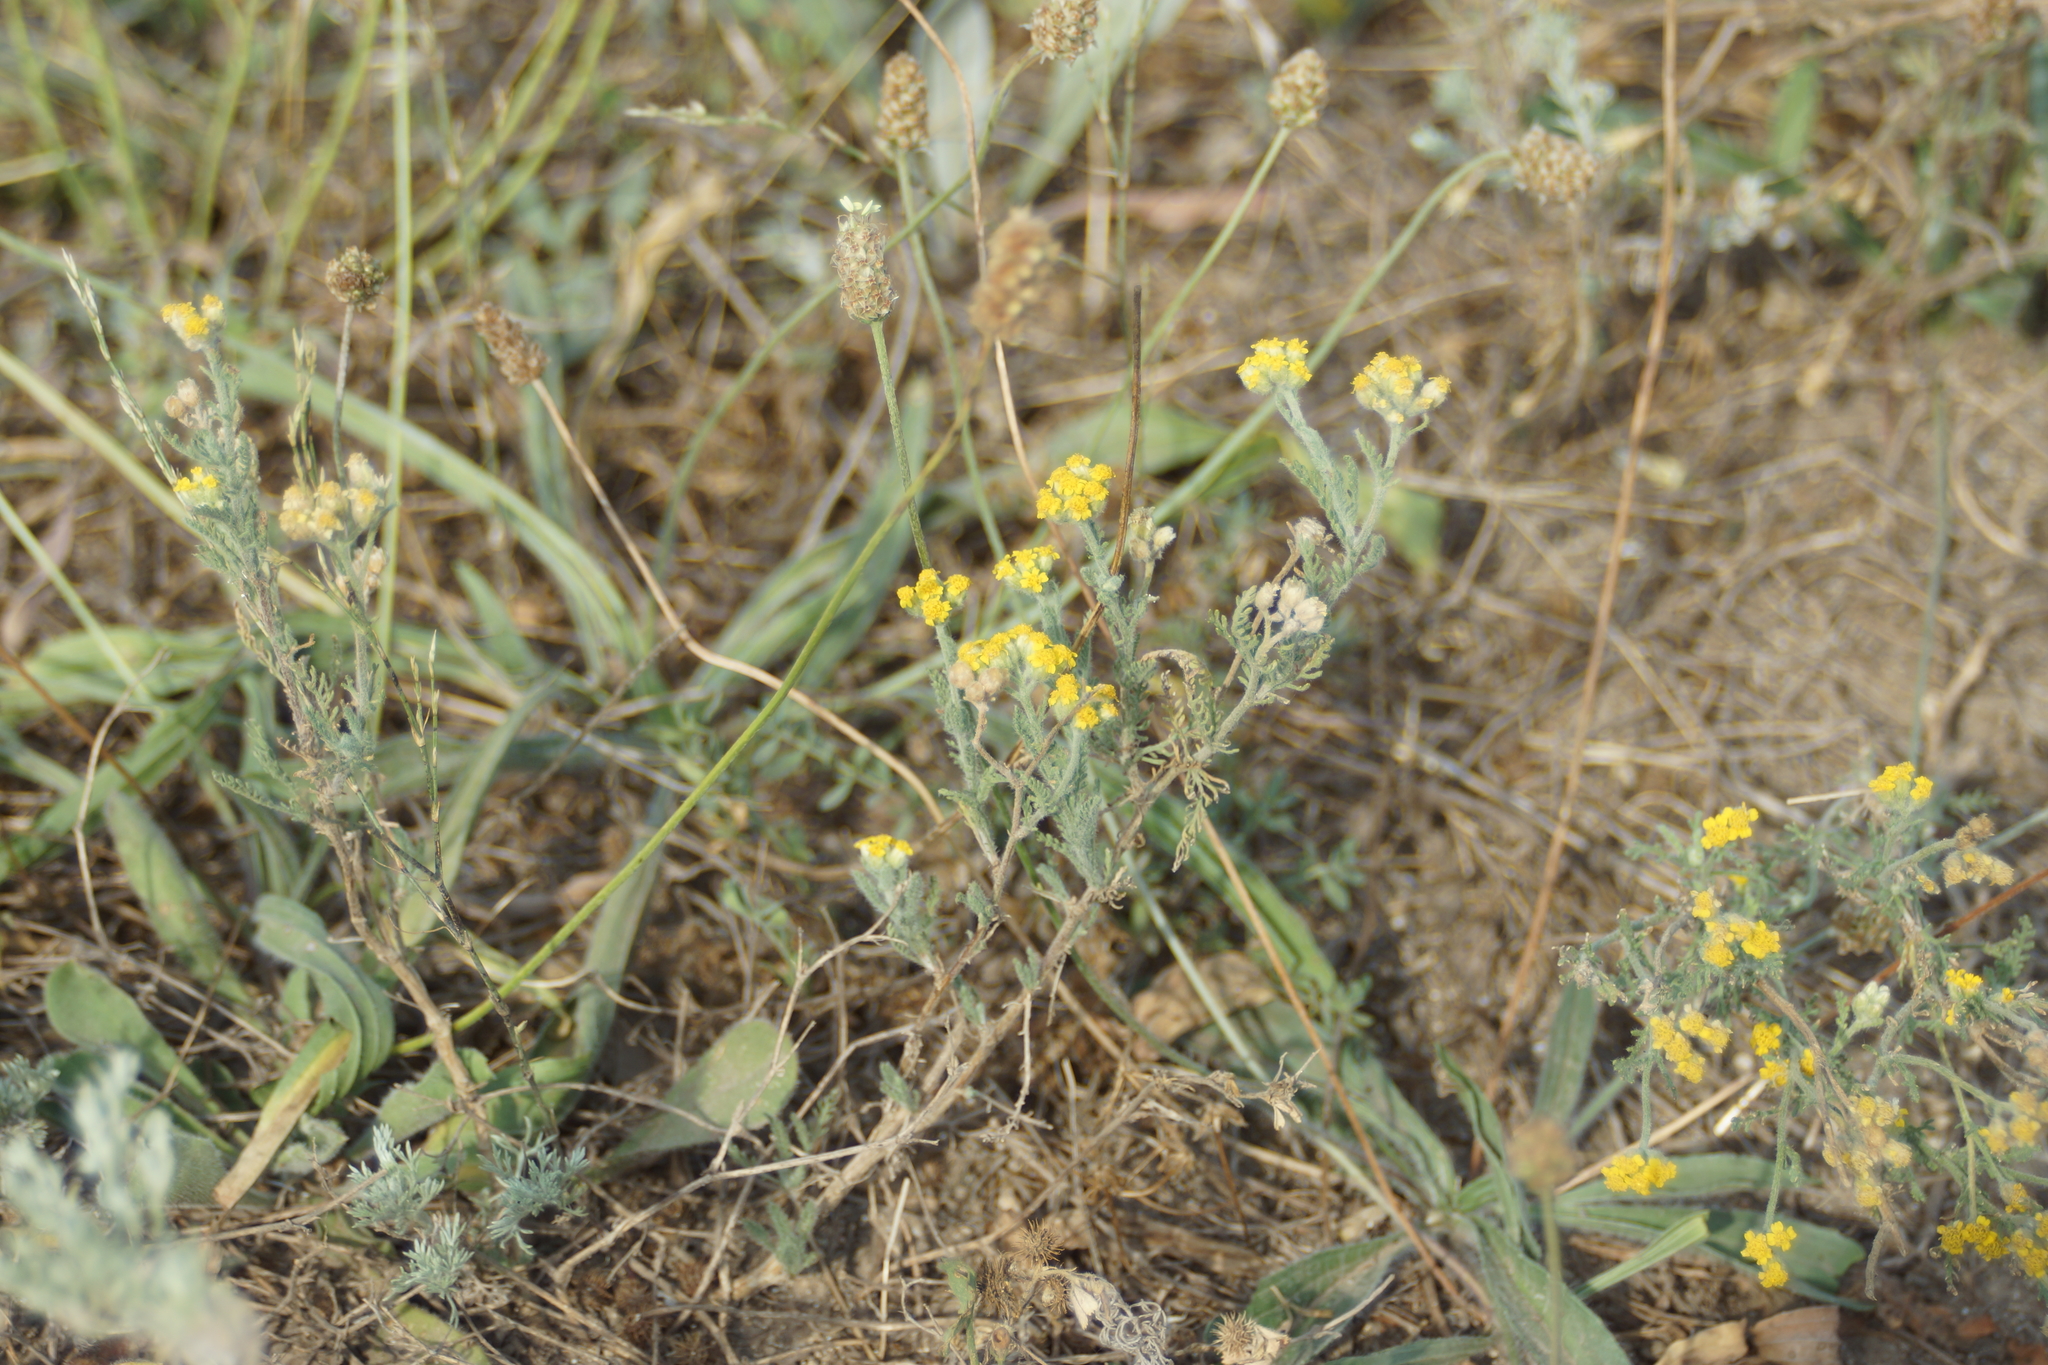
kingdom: Plantae
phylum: Tracheophyta
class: Magnoliopsida
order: Asterales
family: Asteraceae
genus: Achillea
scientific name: Achillea leptophylla
